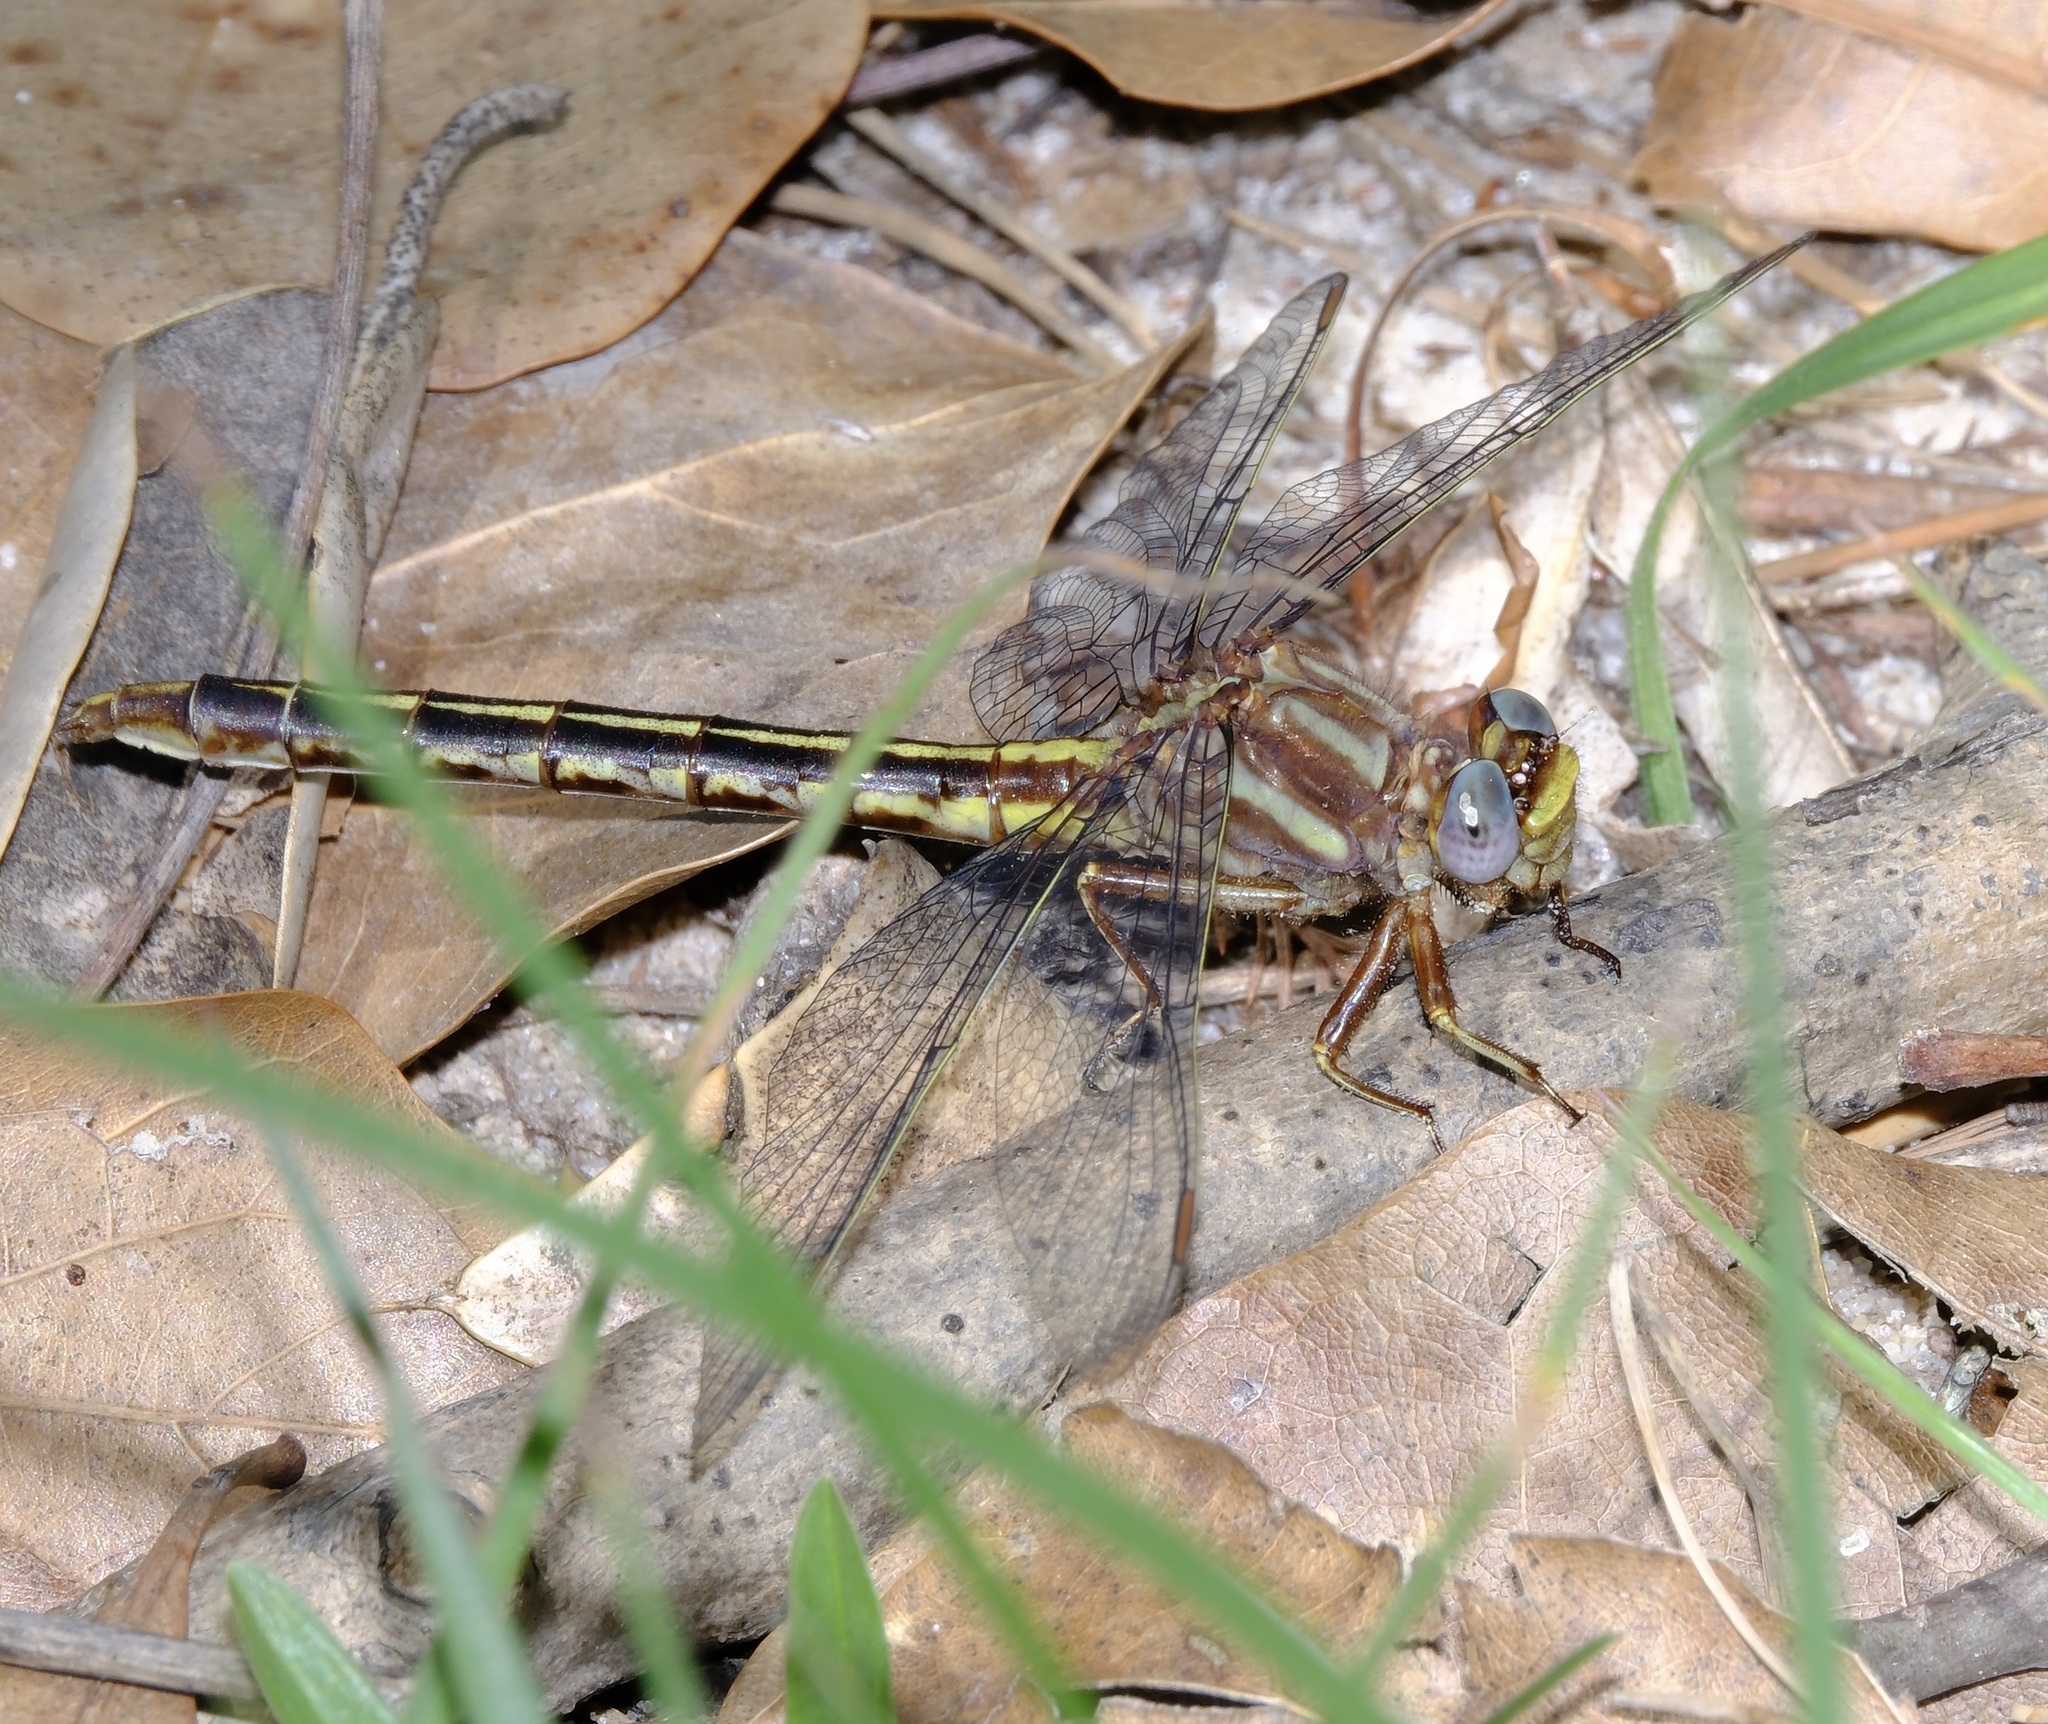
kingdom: Animalia
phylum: Arthropoda
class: Insecta
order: Odonata
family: Gomphidae
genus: Phanogomphus
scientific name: Phanogomphus lividus
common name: Ashy clubtail
